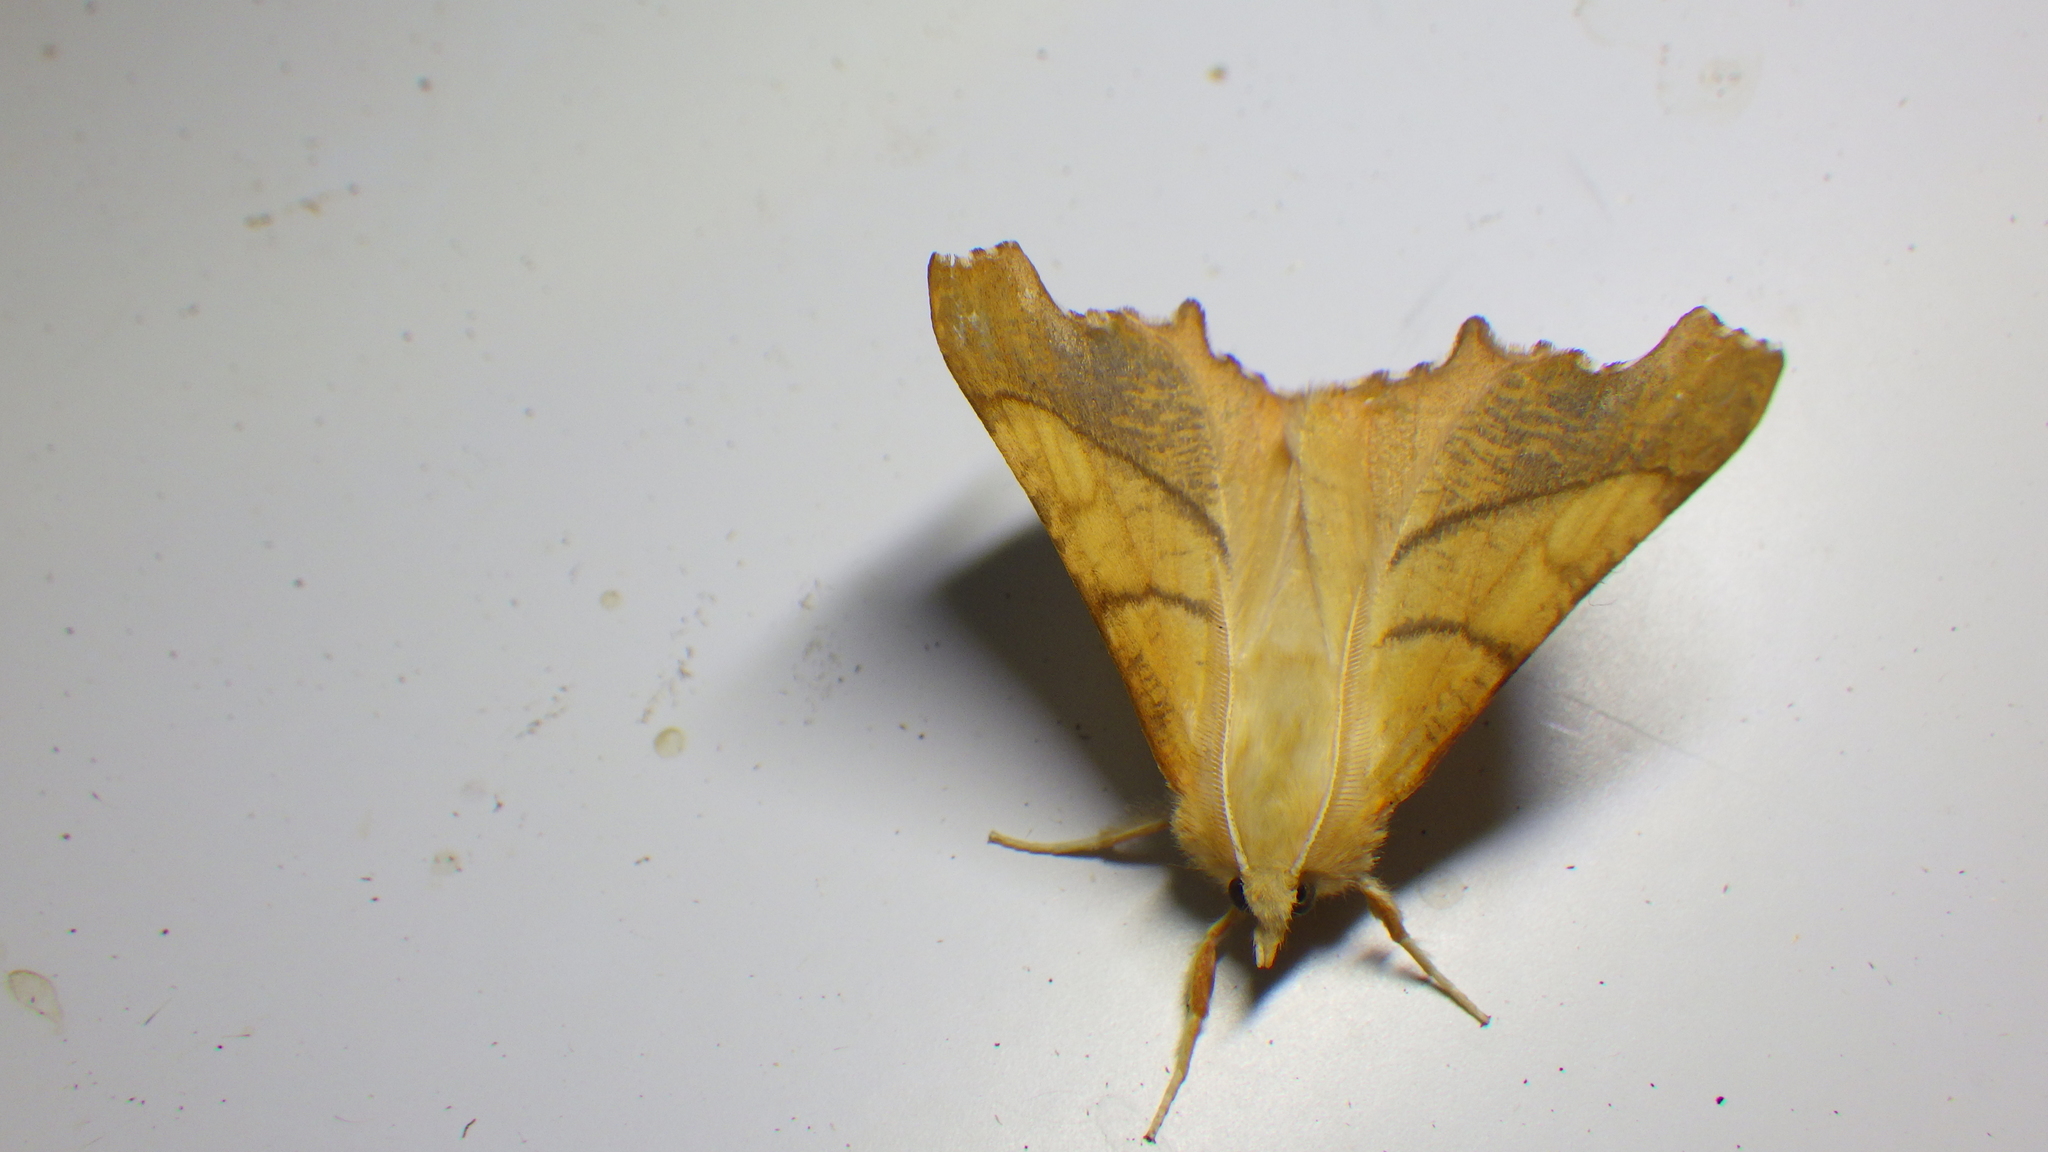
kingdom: Animalia
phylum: Arthropoda
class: Insecta
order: Lepidoptera
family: Geometridae
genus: Ennomos
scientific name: Ennomos fuscantaria
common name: Dusky thorn
